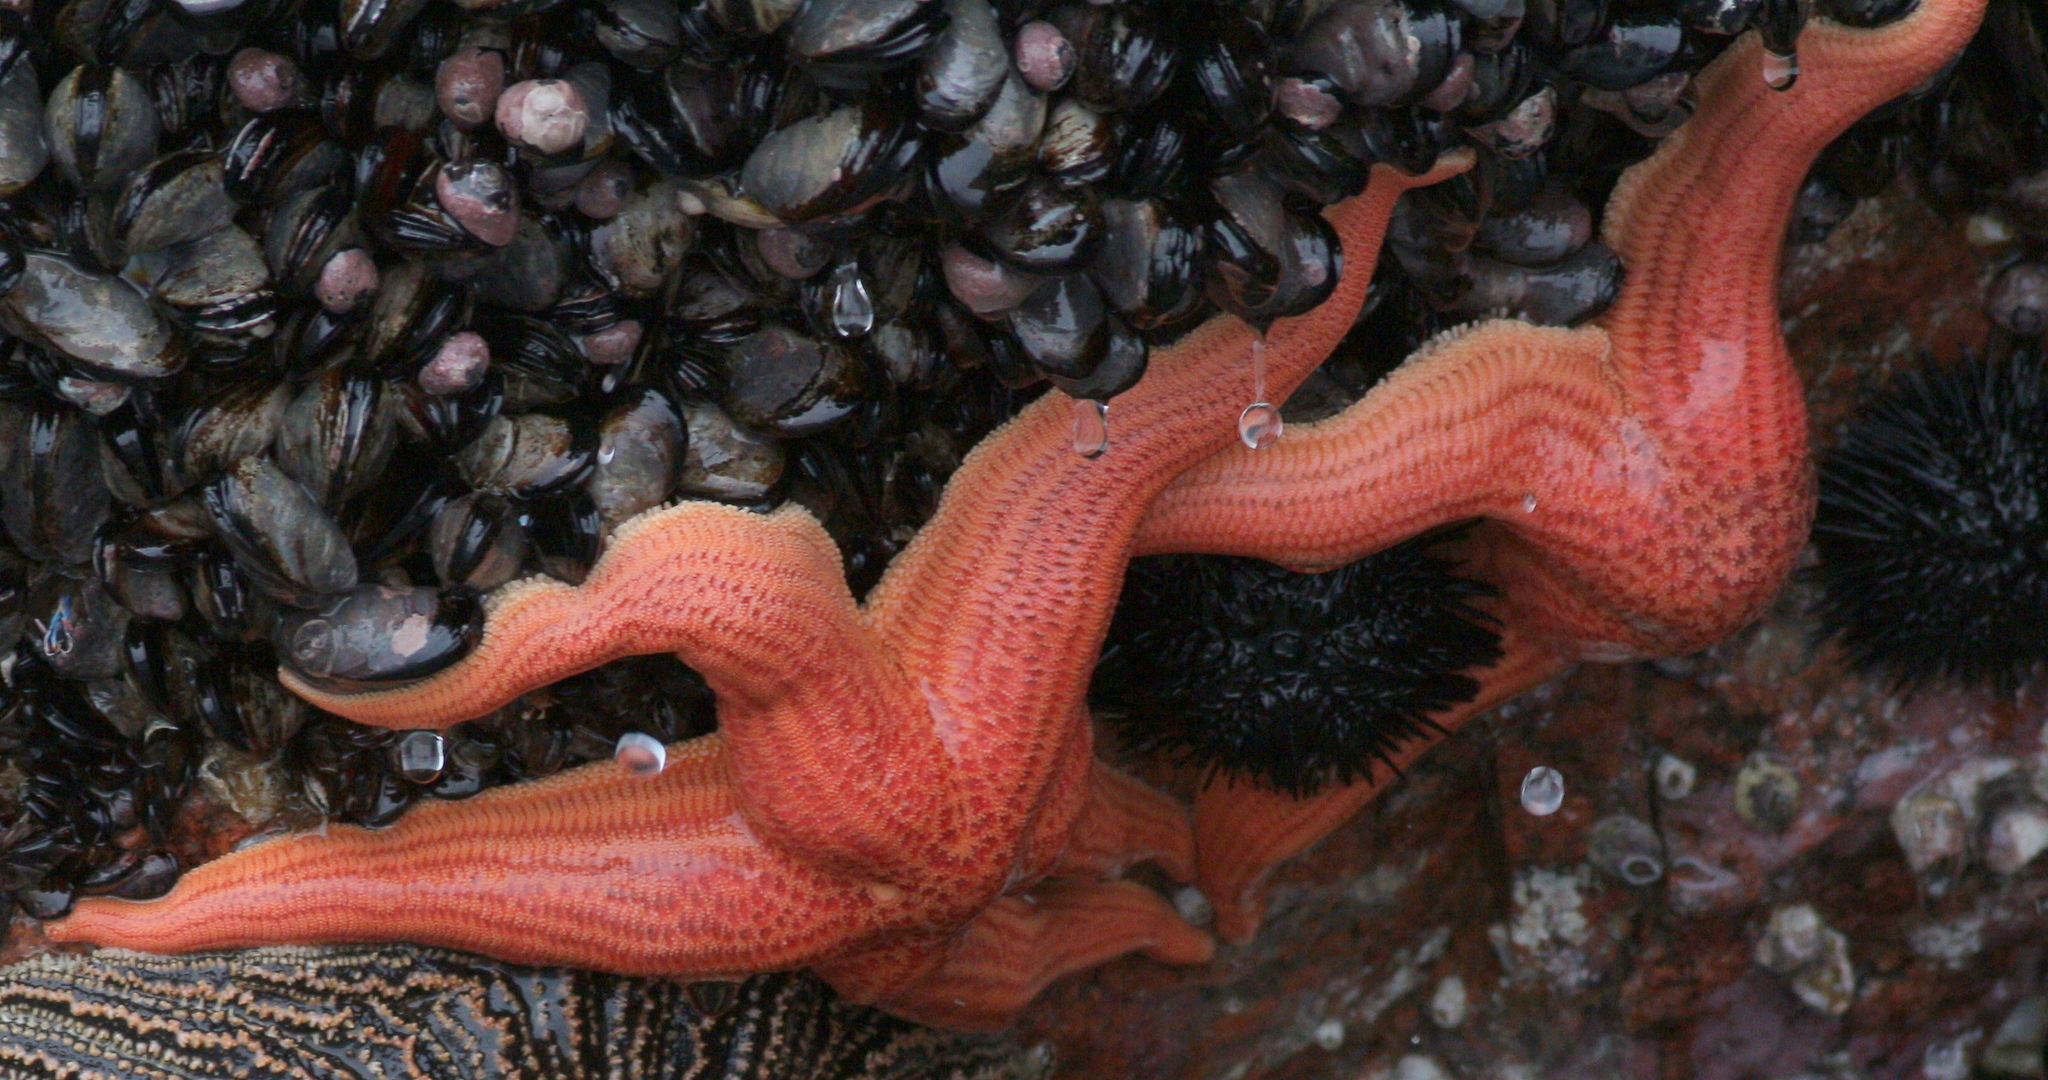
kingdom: Animalia
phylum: Echinodermata
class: Asteroidea
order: Forcipulatida
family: Stichasteridae
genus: Stichaster
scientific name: Stichaster striatus
